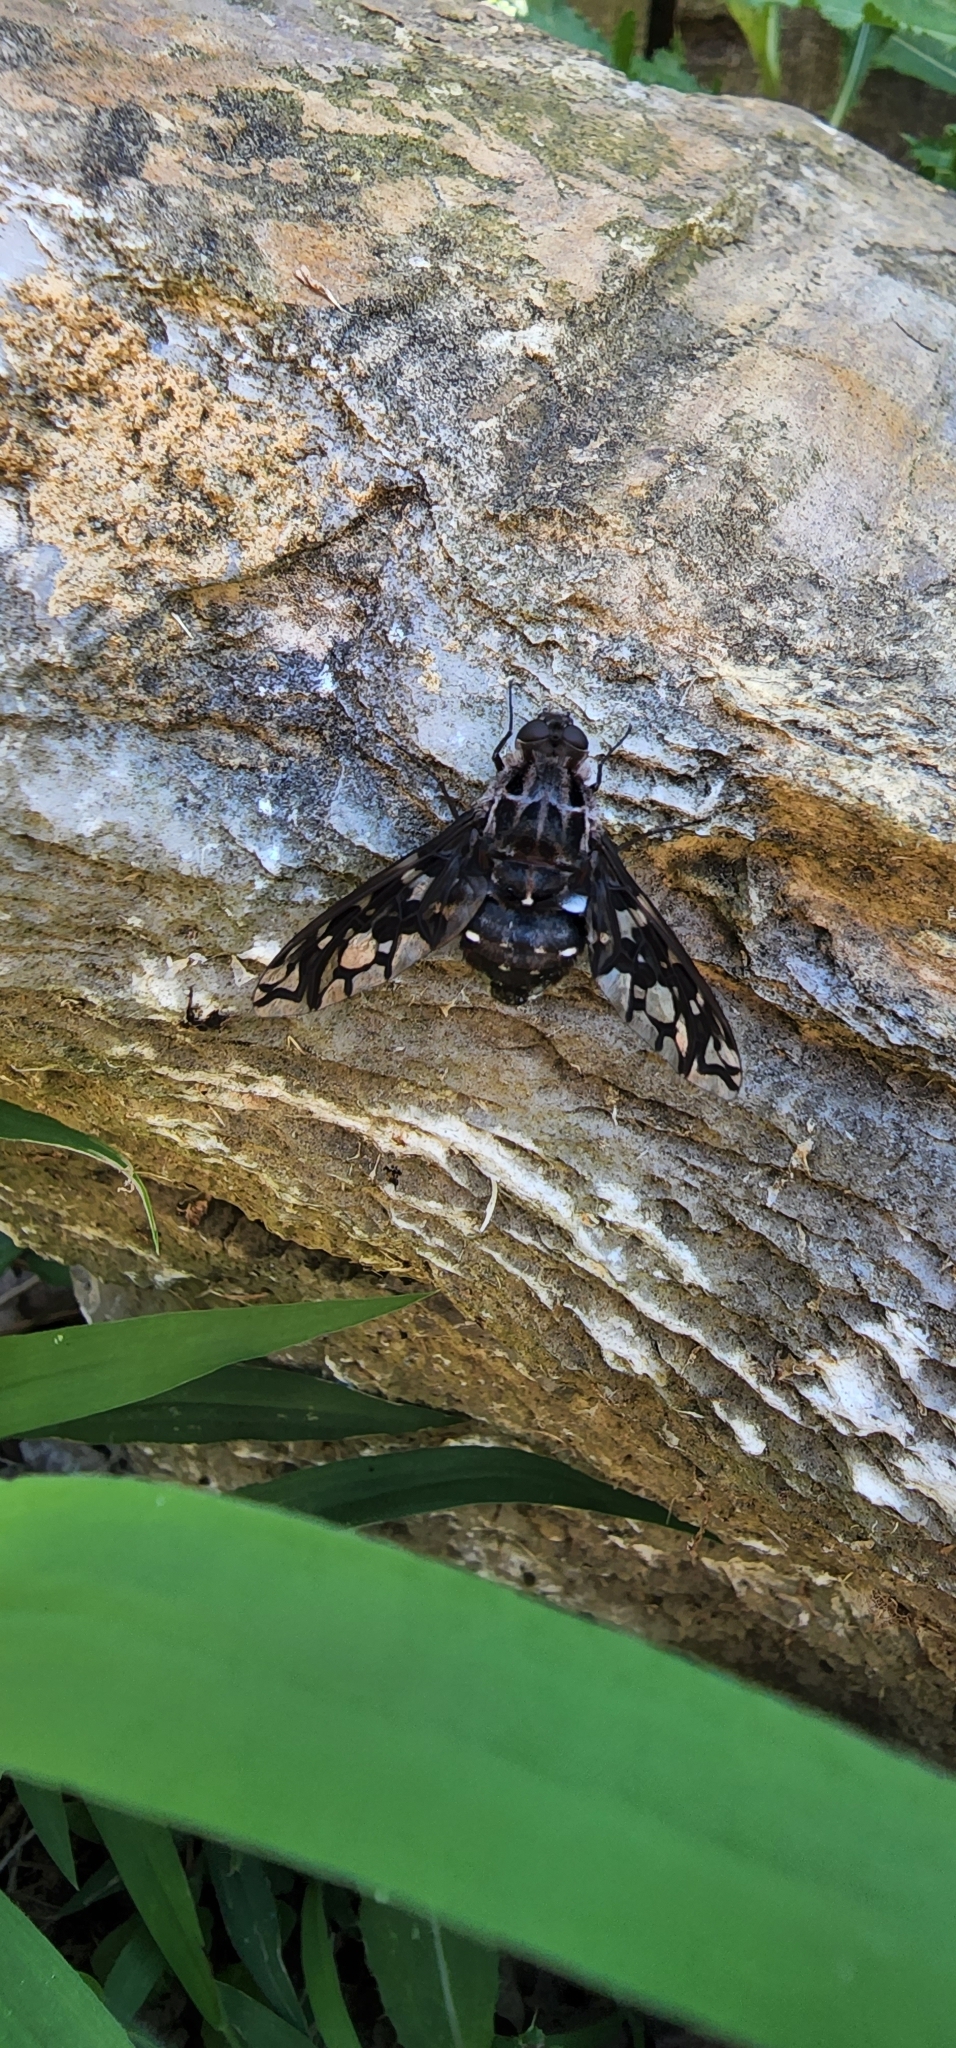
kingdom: Animalia
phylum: Arthropoda
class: Insecta
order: Diptera
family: Bombyliidae
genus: Xenox
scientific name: Xenox tigrinus
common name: Tiger bee fly
